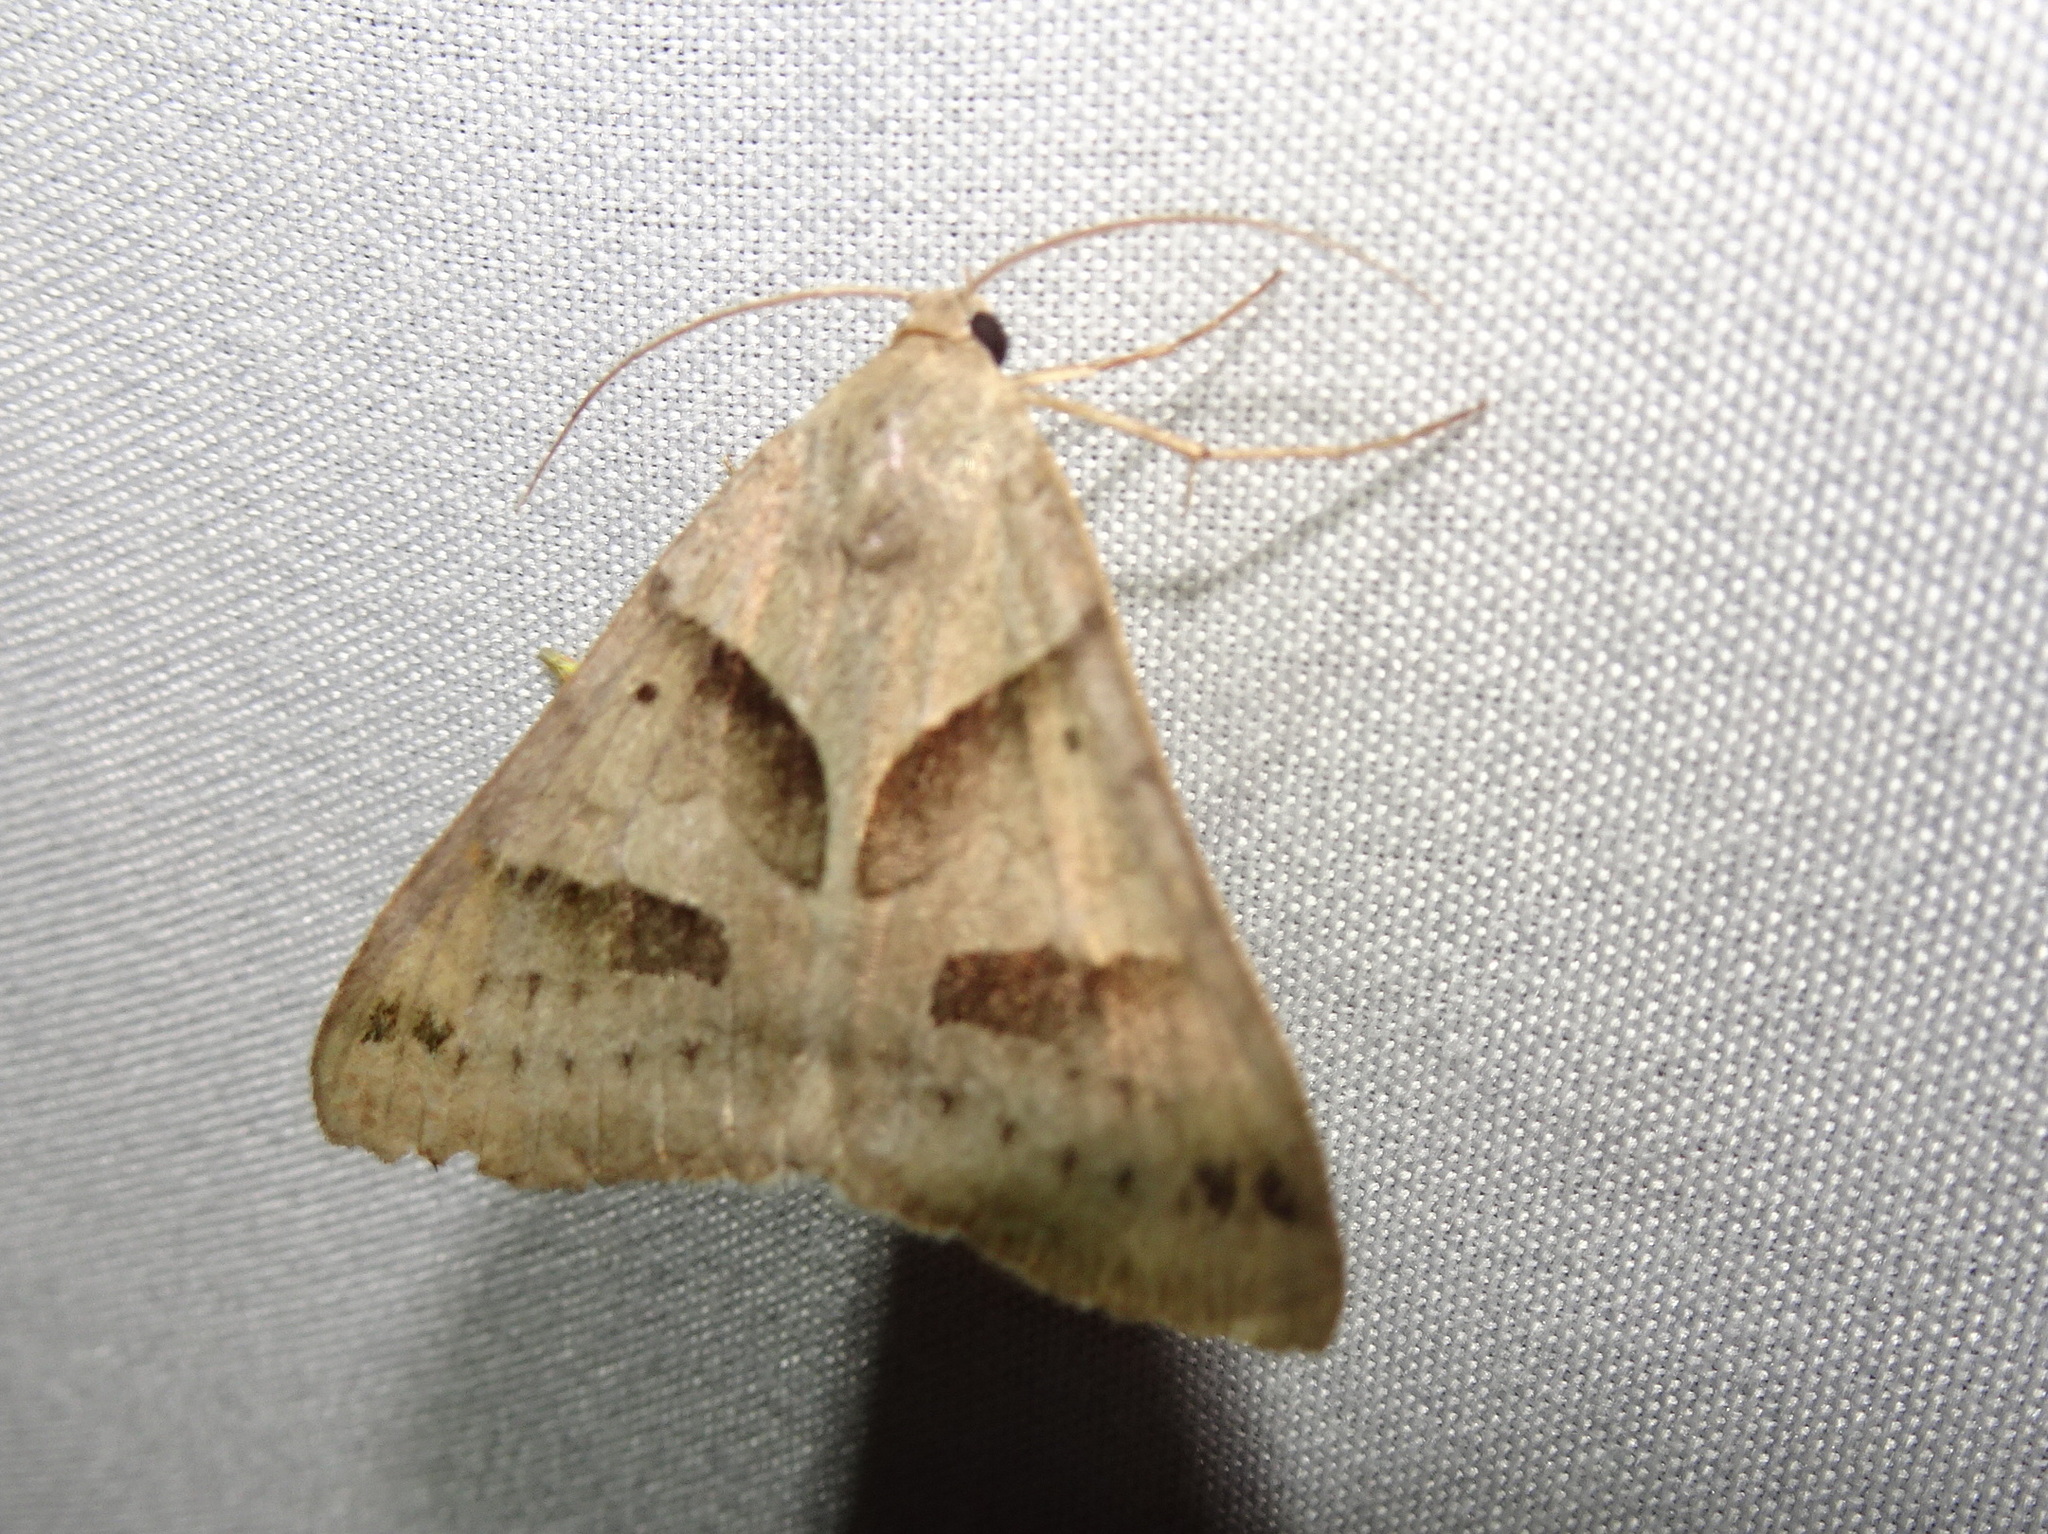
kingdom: Animalia
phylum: Arthropoda
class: Insecta
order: Lepidoptera
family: Erebidae
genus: Caenurgina
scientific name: Caenurgina erechtea
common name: Forage looper moth
